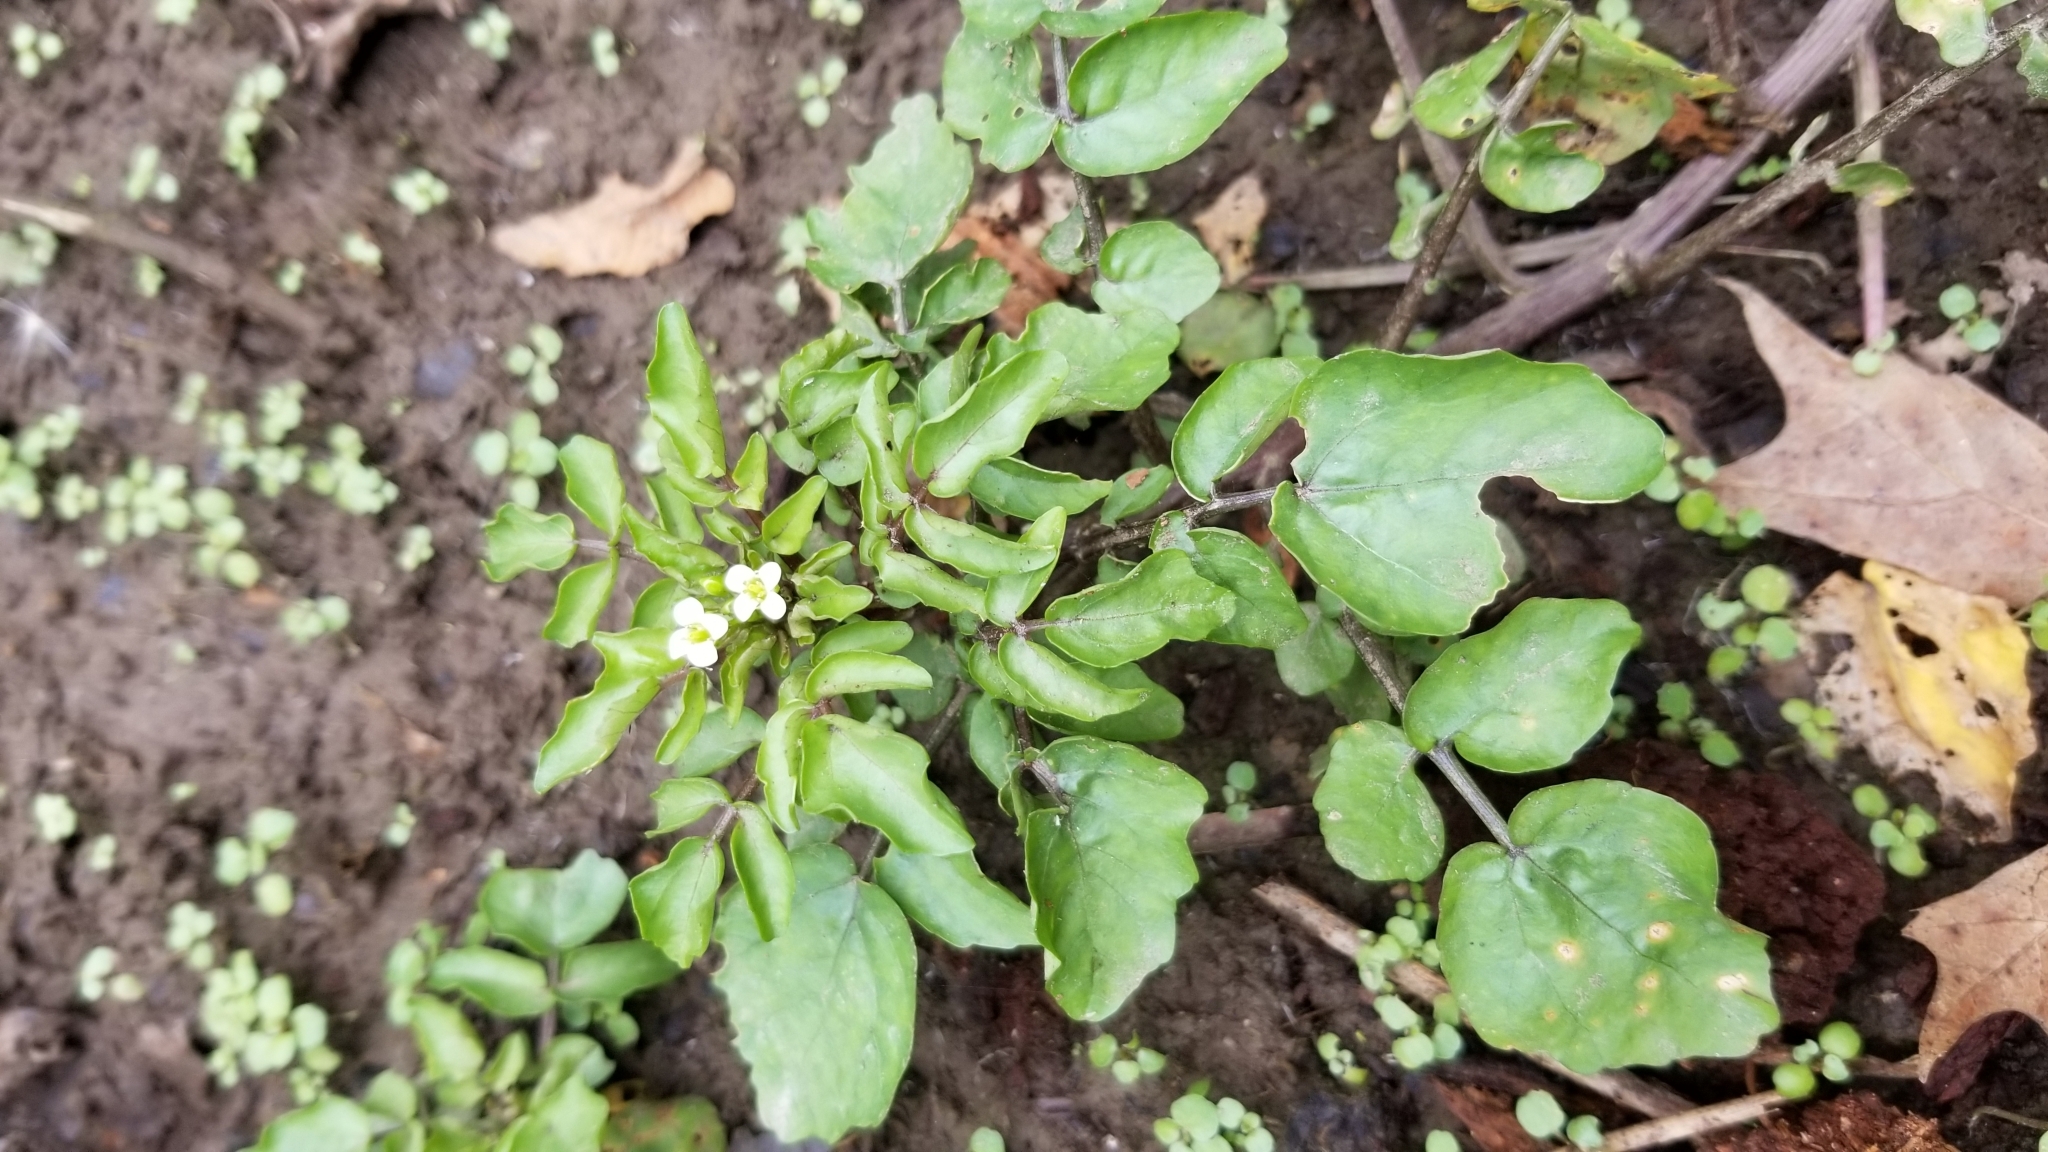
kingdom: Plantae
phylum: Tracheophyta
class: Magnoliopsida
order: Brassicales
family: Brassicaceae
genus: Nasturtium
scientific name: Nasturtium officinale
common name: Watercress
